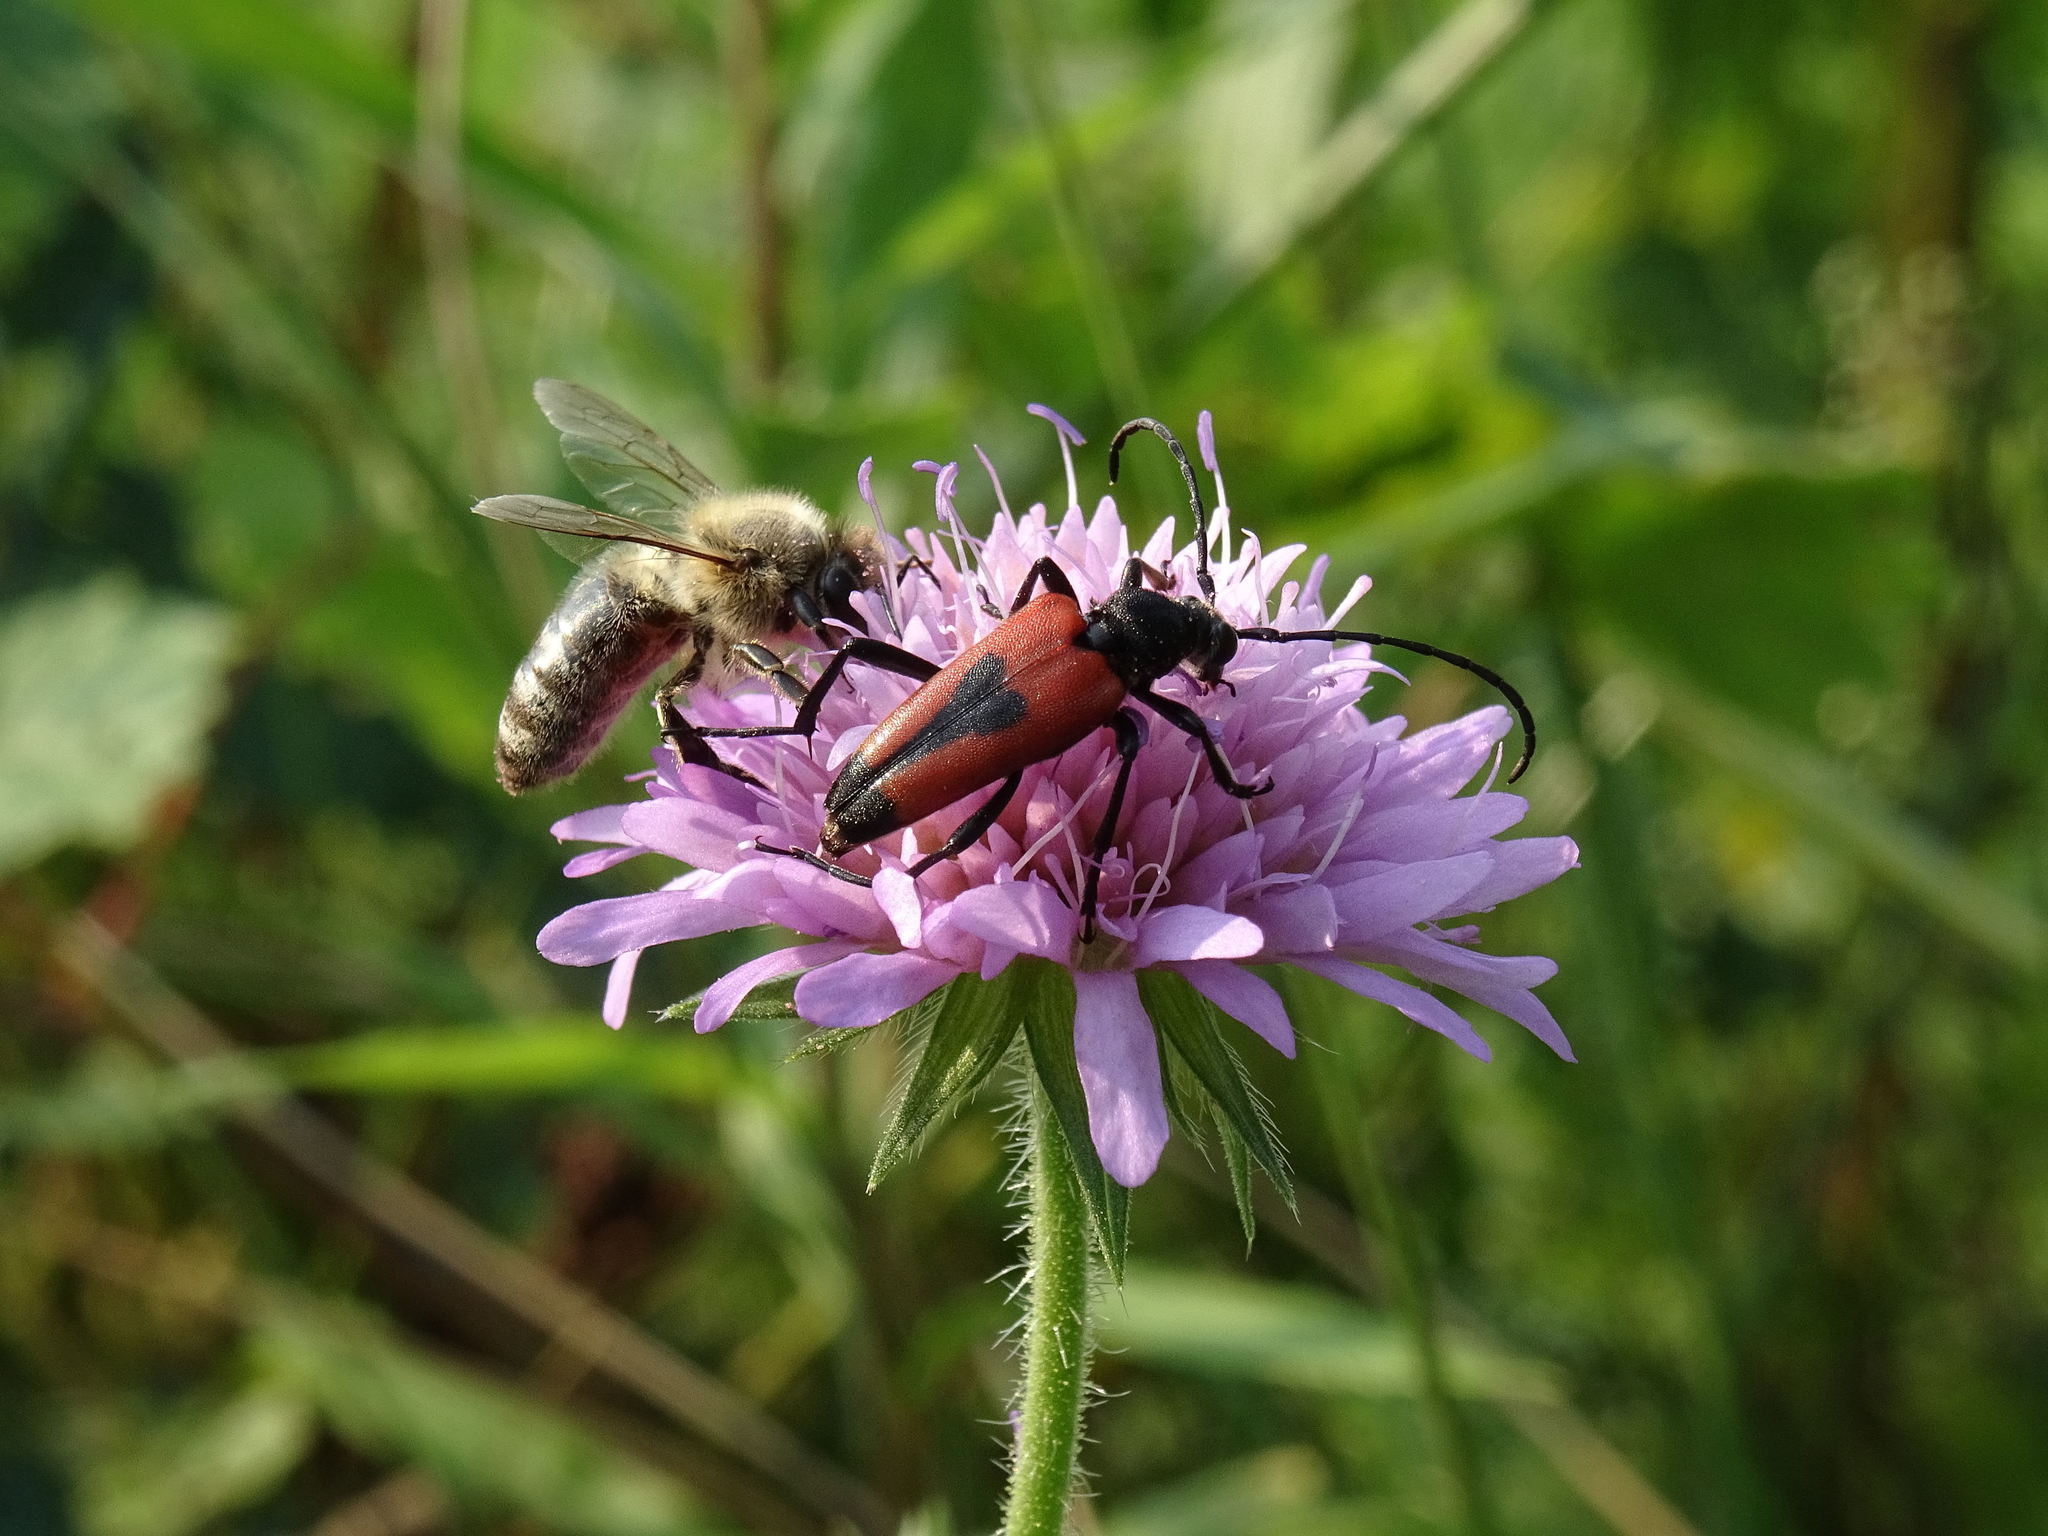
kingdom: Animalia
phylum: Arthropoda
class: Insecta
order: Coleoptera
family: Cerambycidae
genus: Stictoleptura
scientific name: Stictoleptura cordigera
